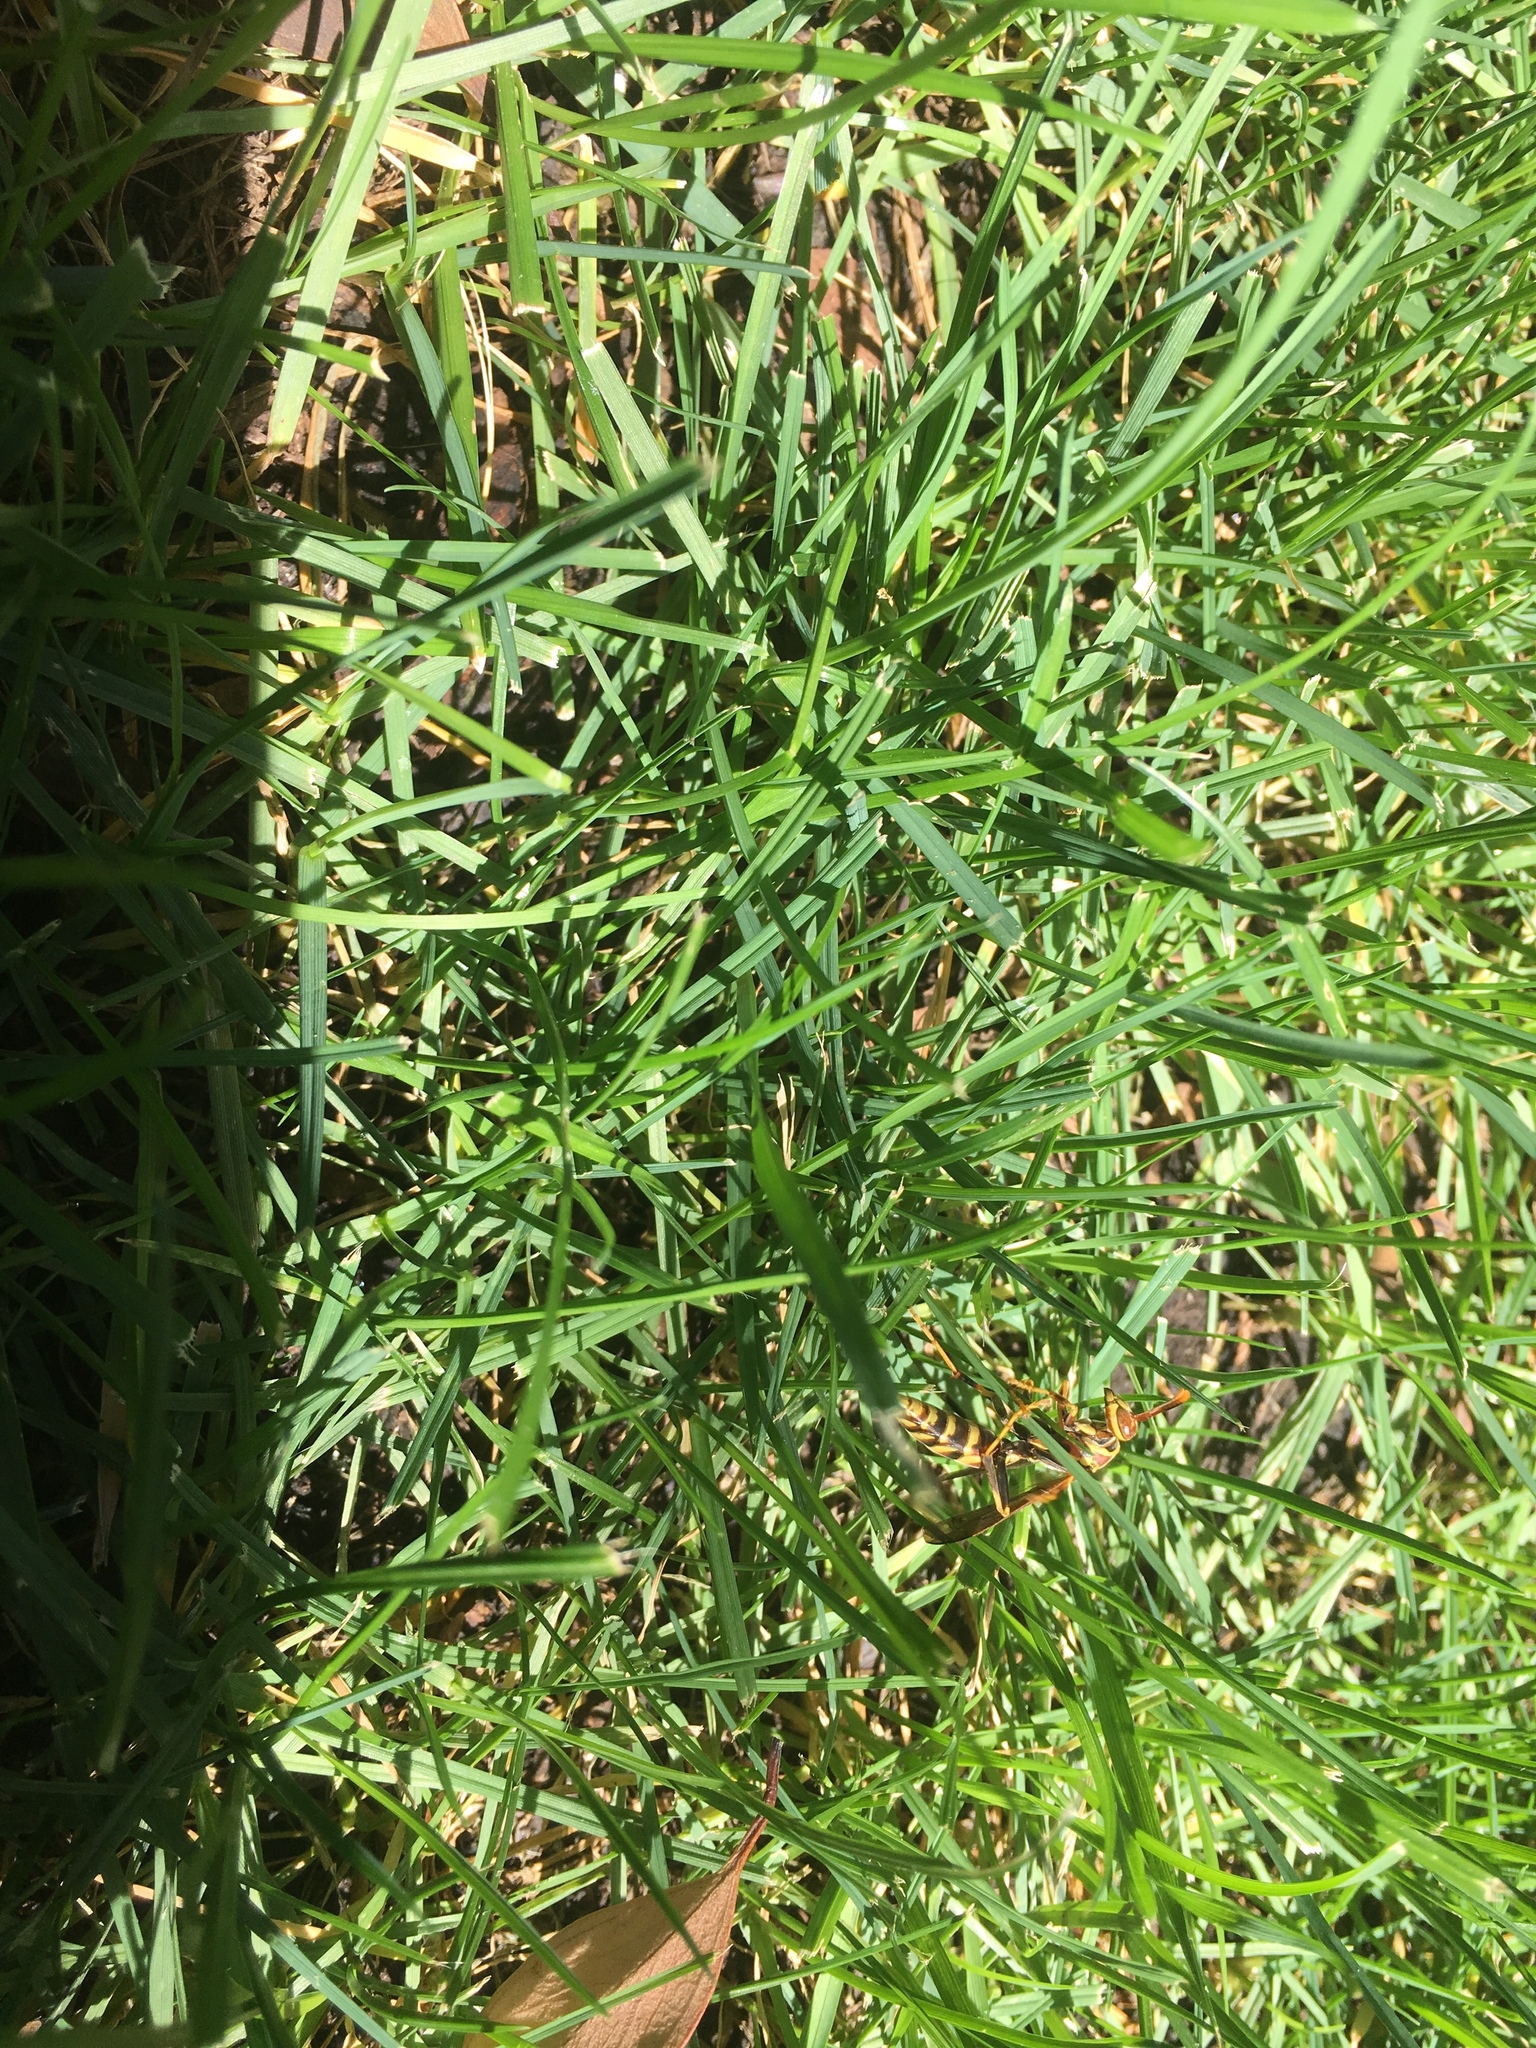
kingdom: Animalia
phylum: Arthropoda
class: Insecta
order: Hymenoptera
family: Eumenidae
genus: Polistes
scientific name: Polistes exclamans
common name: Paper wasp
